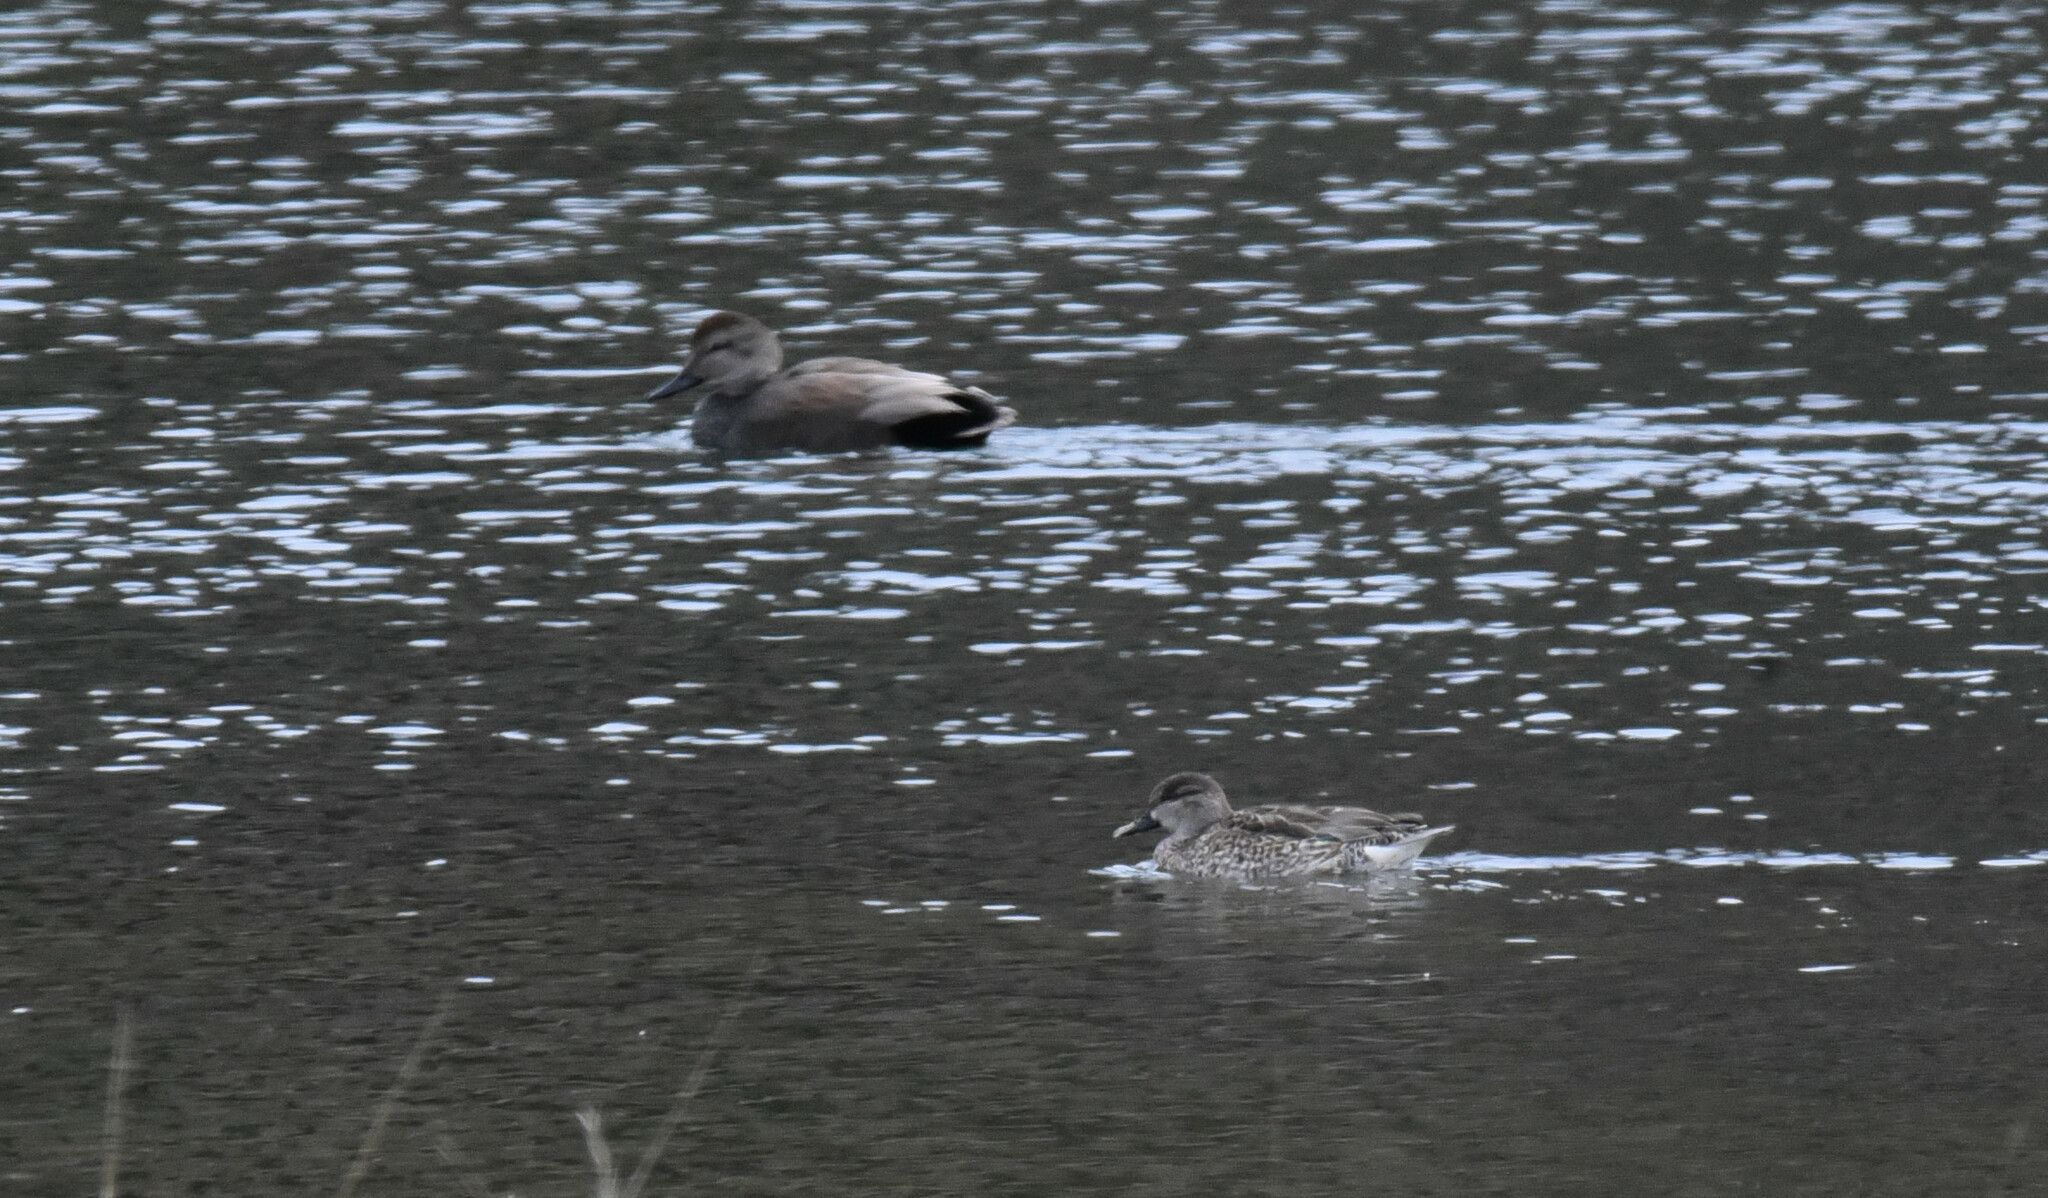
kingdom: Animalia
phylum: Chordata
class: Aves
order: Anseriformes
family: Anatidae
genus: Mareca
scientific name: Mareca strepera
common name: Gadwall
